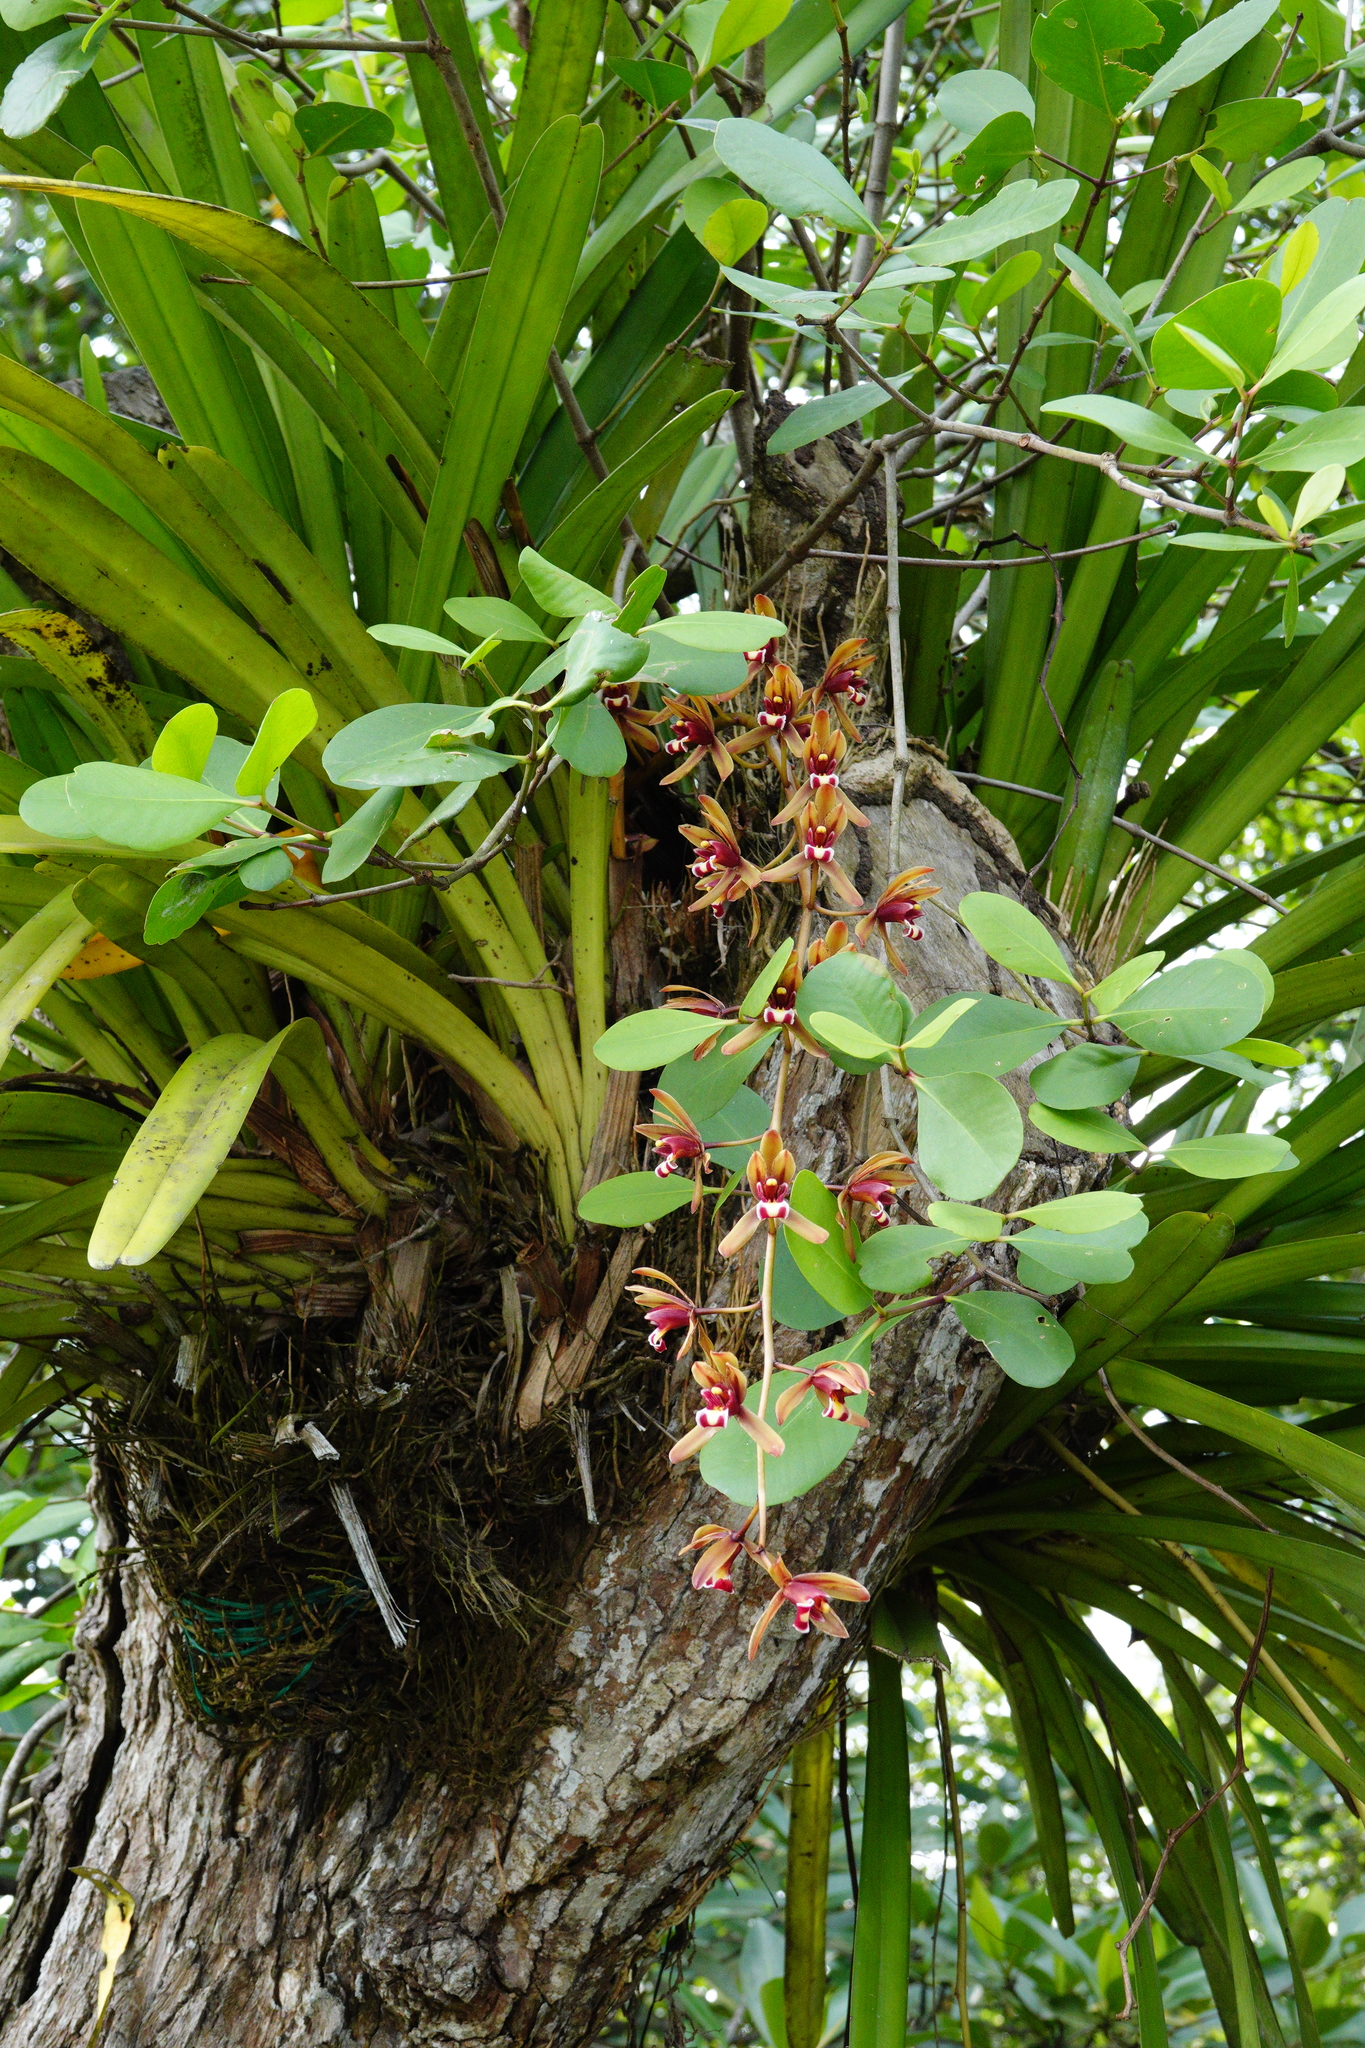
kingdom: Plantae
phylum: Tracheophyta
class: Liliopsida
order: Asparagales
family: Orchidaceae
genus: Cymbidium
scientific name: Cymbidium finlaysonianum
